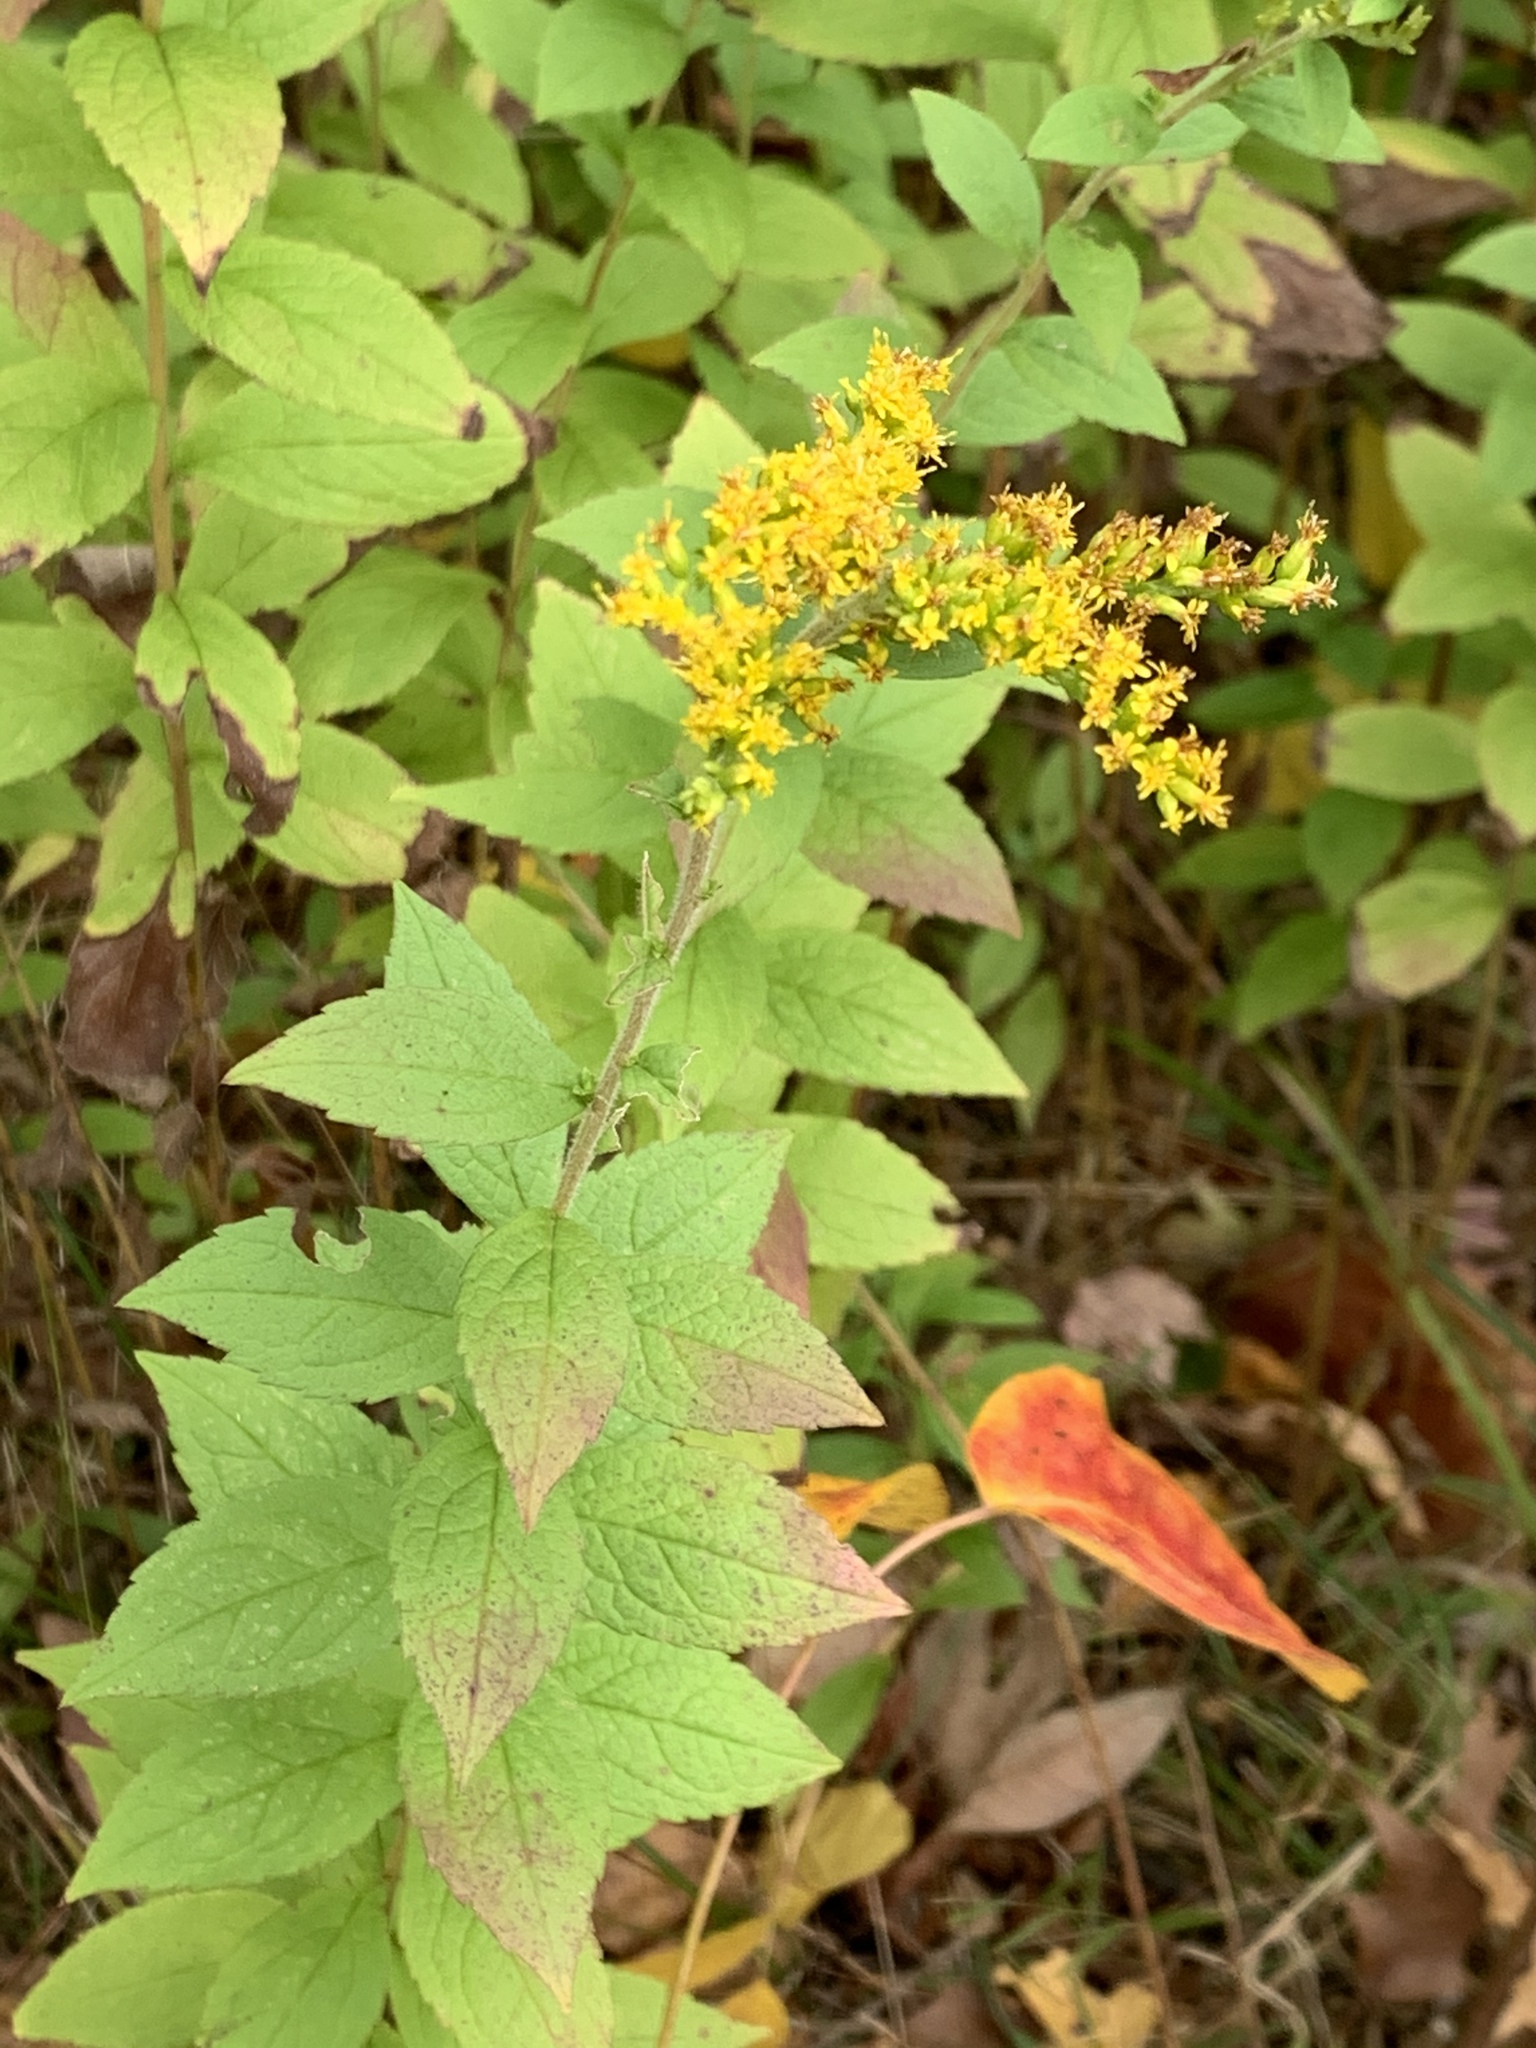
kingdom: Plantae
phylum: Tracheophyta
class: Magnoliopsida
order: Asterales
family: Asteraceae
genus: Solidago
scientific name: Solidago rugosa
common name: Rough-stemmed goldenrod
